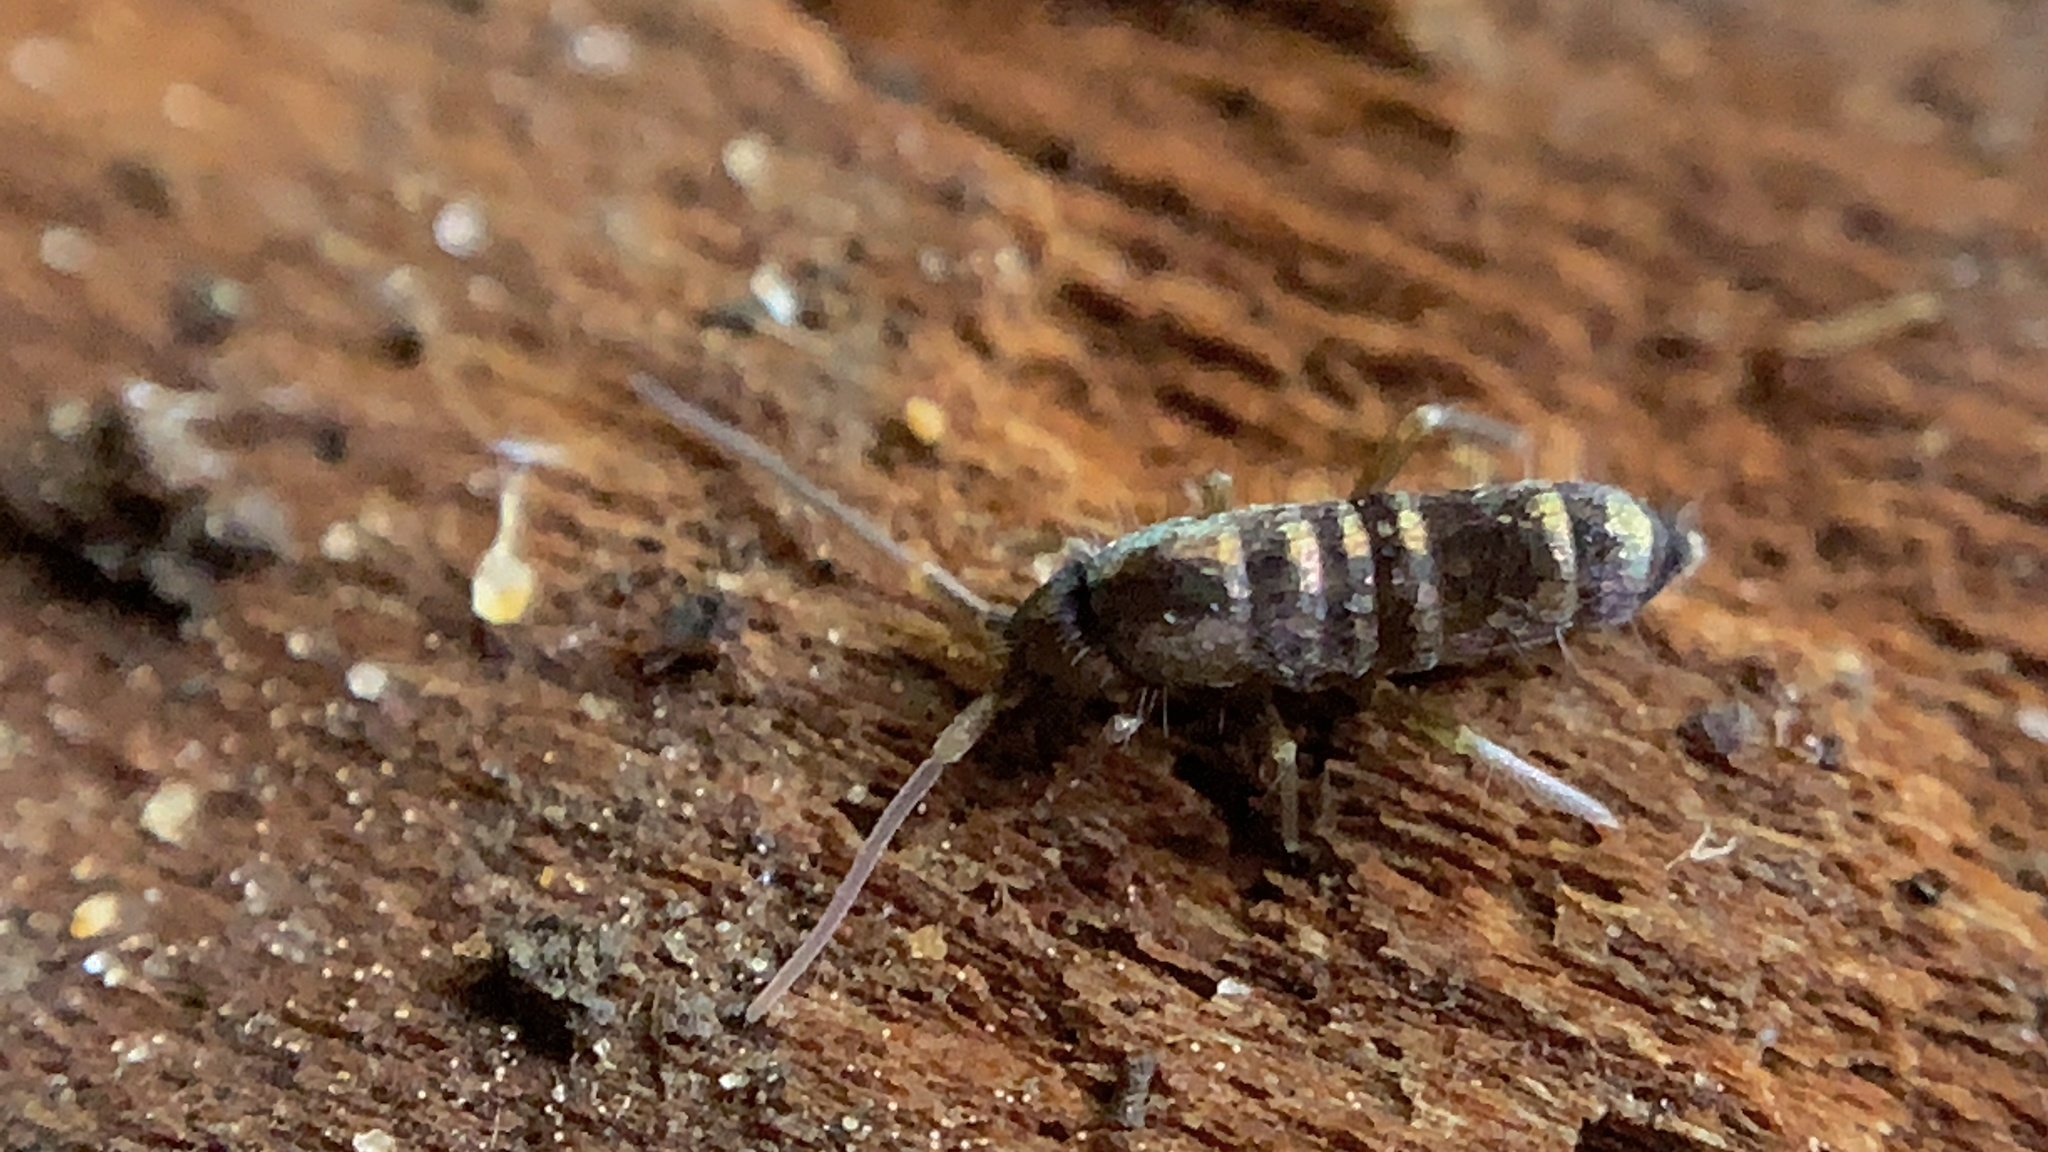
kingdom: Animalia
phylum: Arthropoda
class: Collembola
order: Entomobryomorpha
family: Tomoceridae
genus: Tomocerus
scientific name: Tomocerus vulgaris
